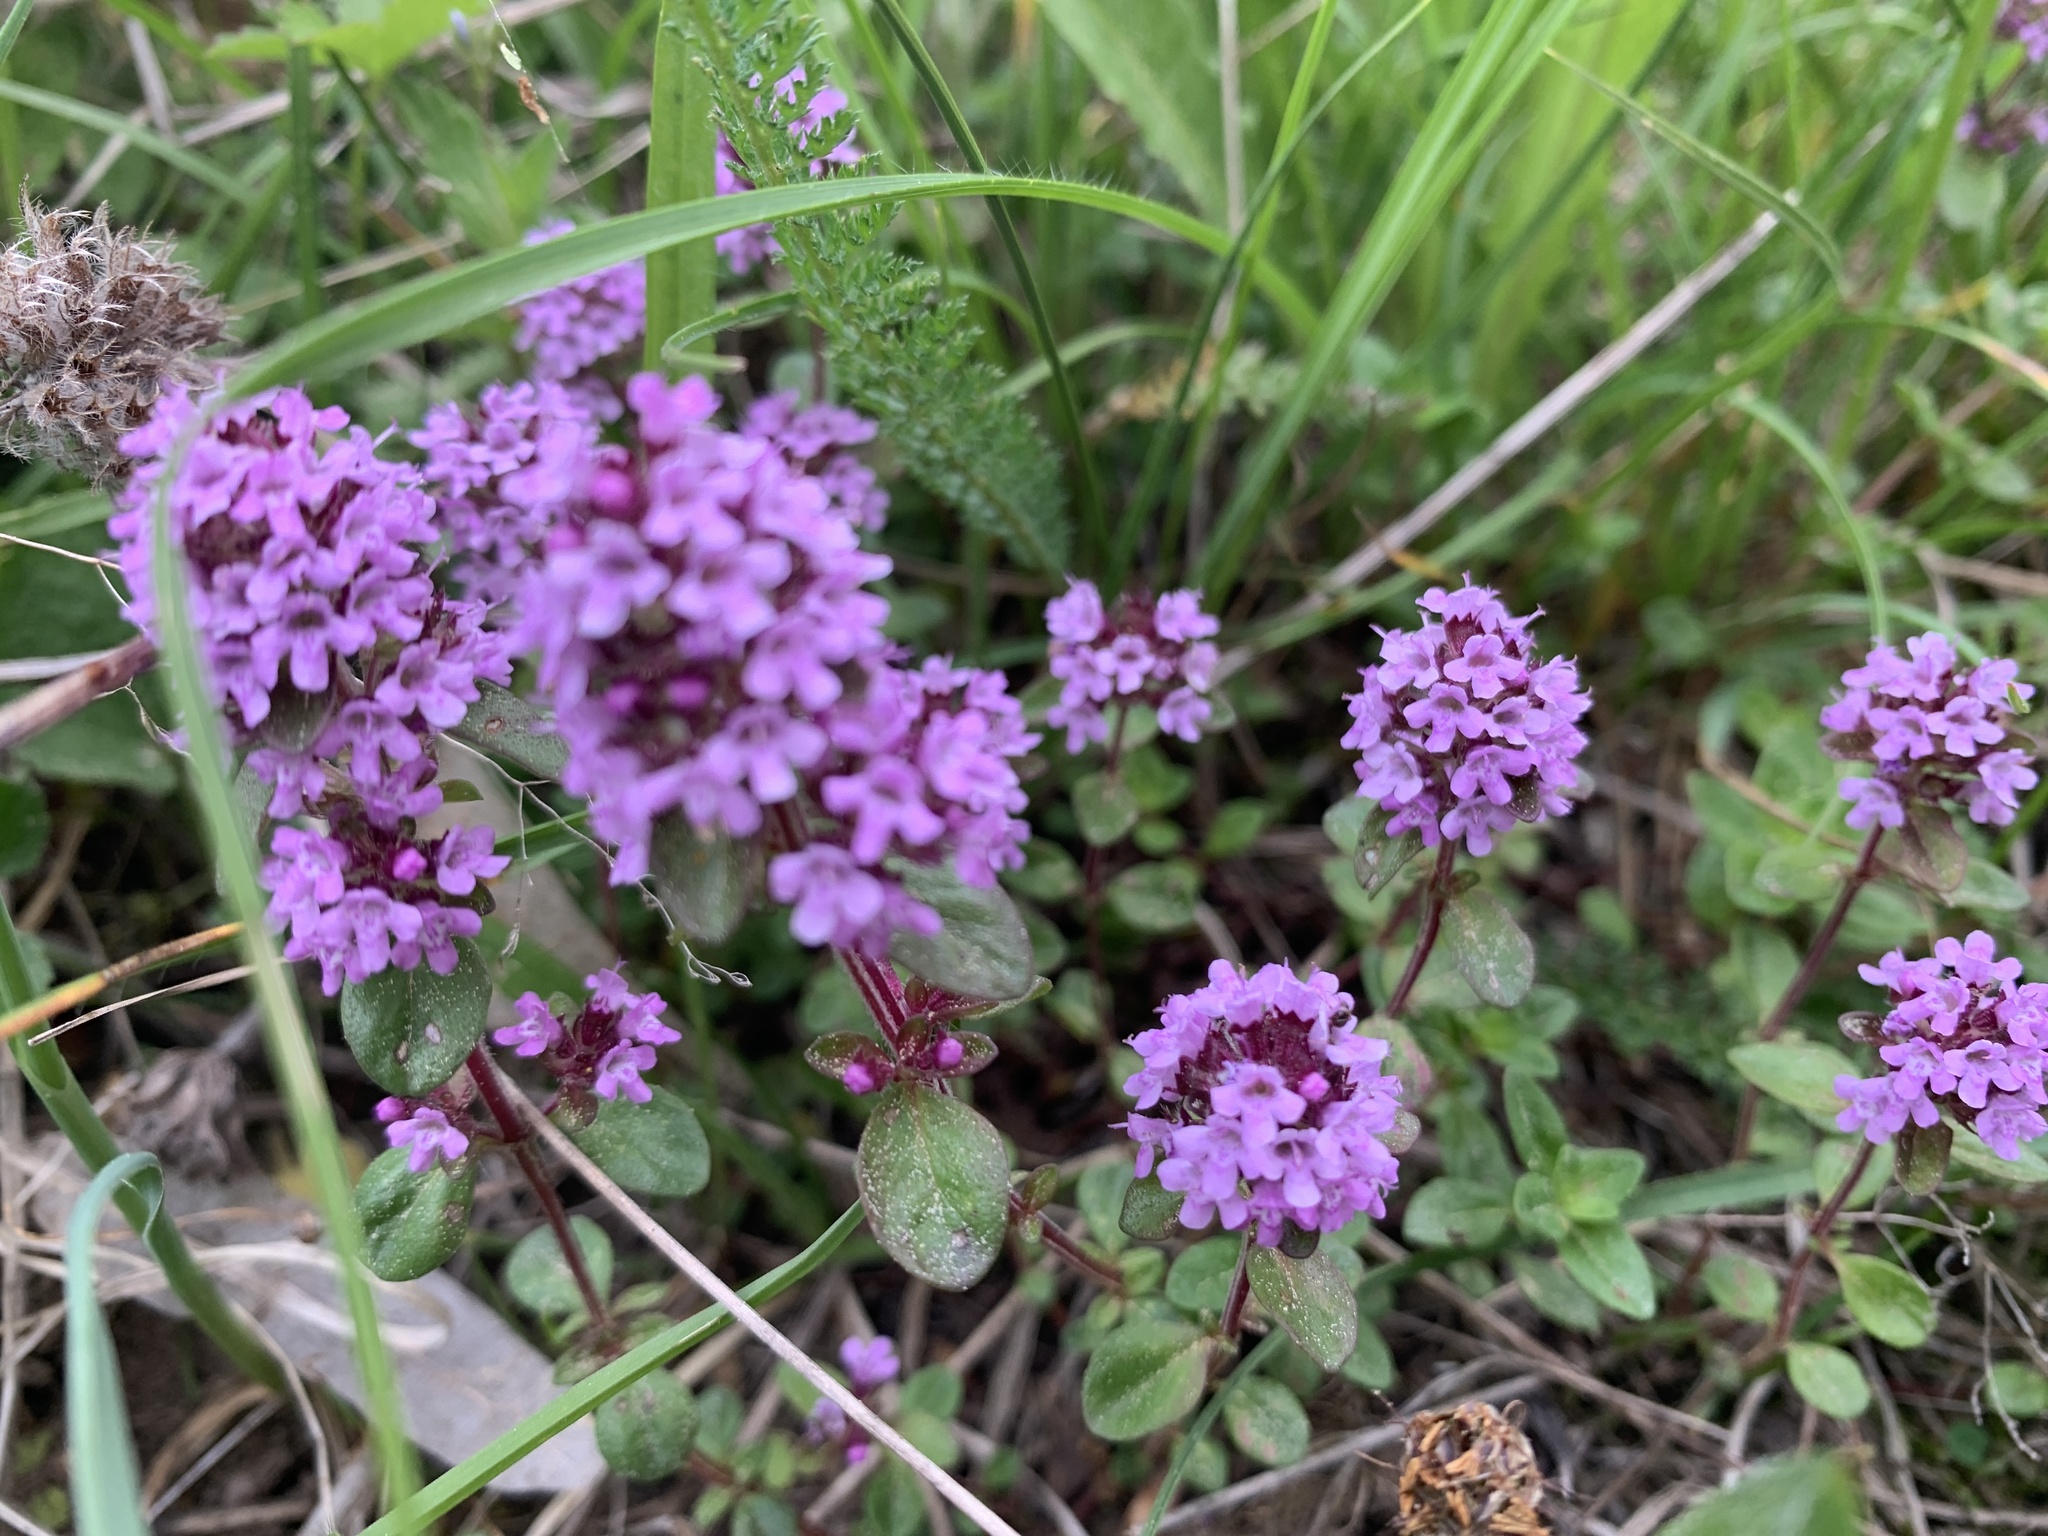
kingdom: Plantae
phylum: Tracheophyta
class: Magnoliopsida
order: Lamiales
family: Lamiaceae
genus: Thymus
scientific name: Thymus pulegioides
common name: Large thyme
